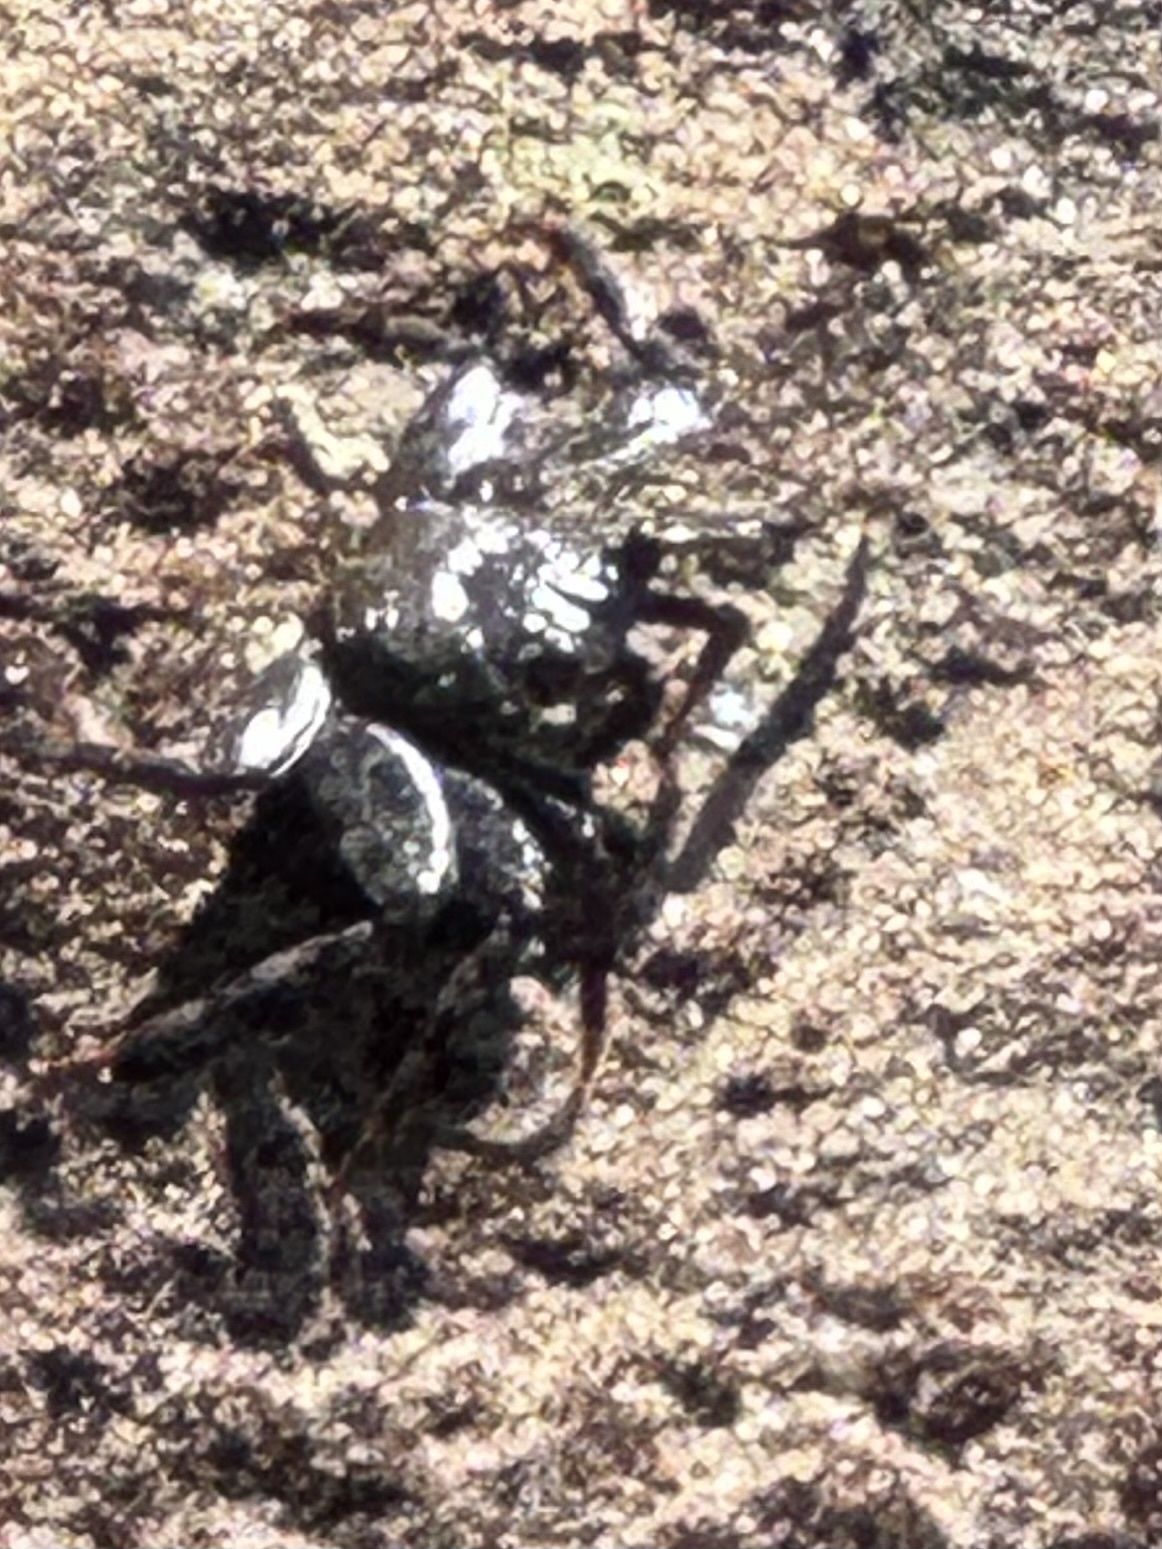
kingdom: Animalia
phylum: Arthropoda
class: Malacostraca
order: Decapoda
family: Grapsidae
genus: Grapsus
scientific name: Grapsus grapsus
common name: Sally lightfoot
